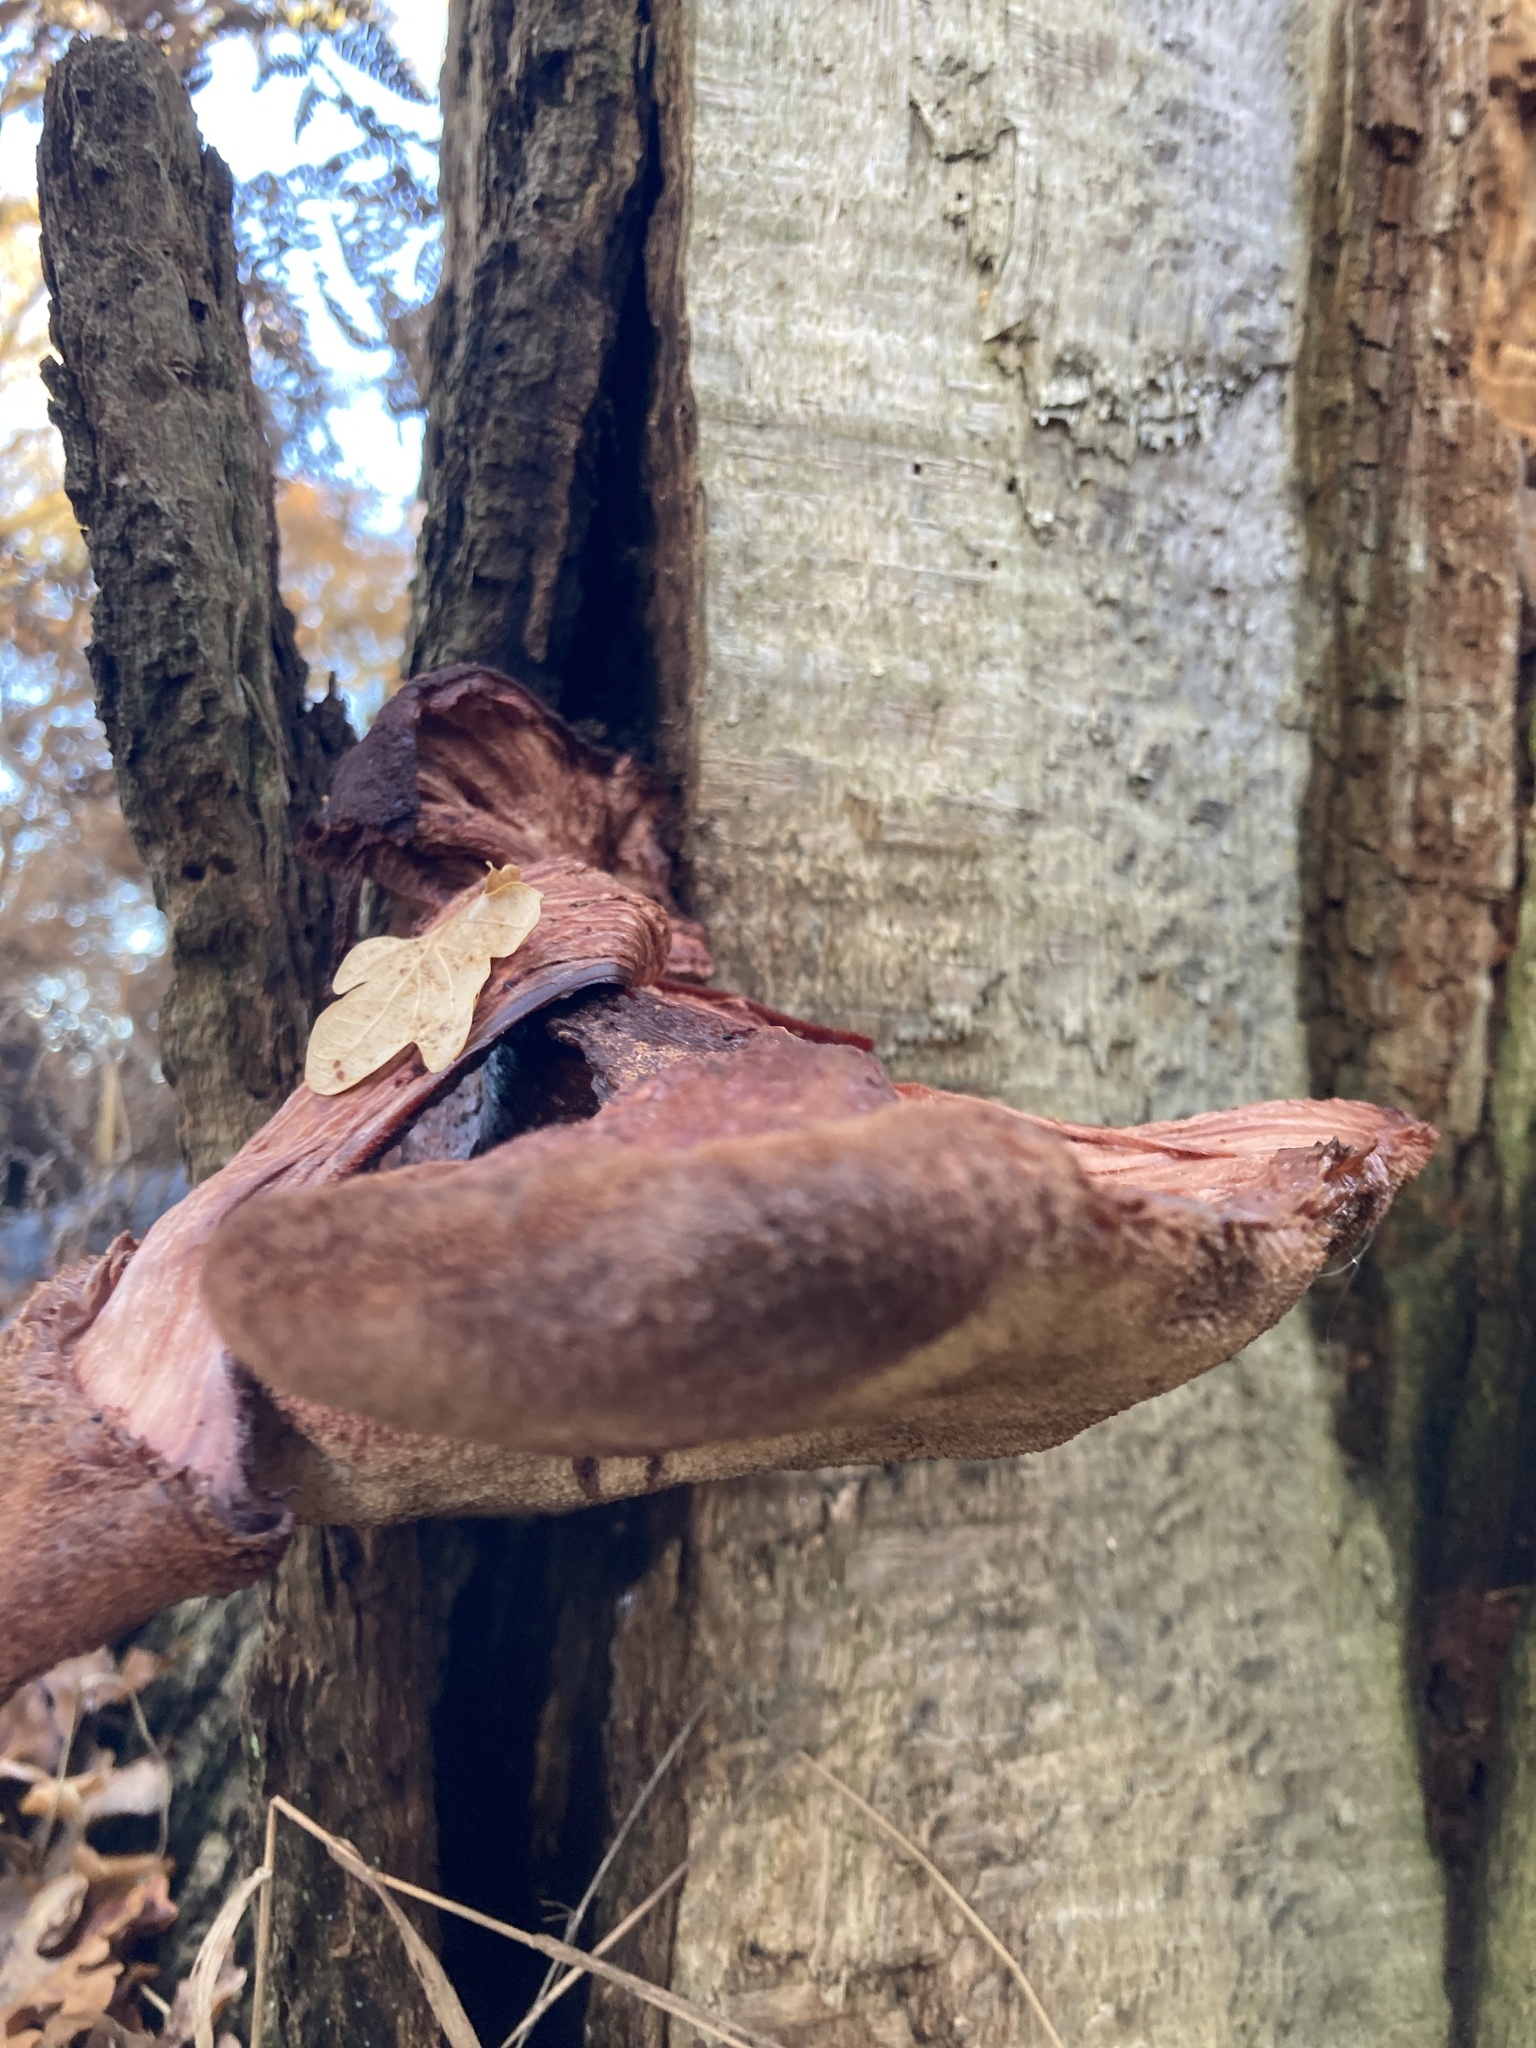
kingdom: Fungi
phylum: Basidiomycota
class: Agaricomycetes
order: Agaricales
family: Fistulinaceae
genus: Fistulina
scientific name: Fistulina hepatica
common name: Beef-steak fungus
